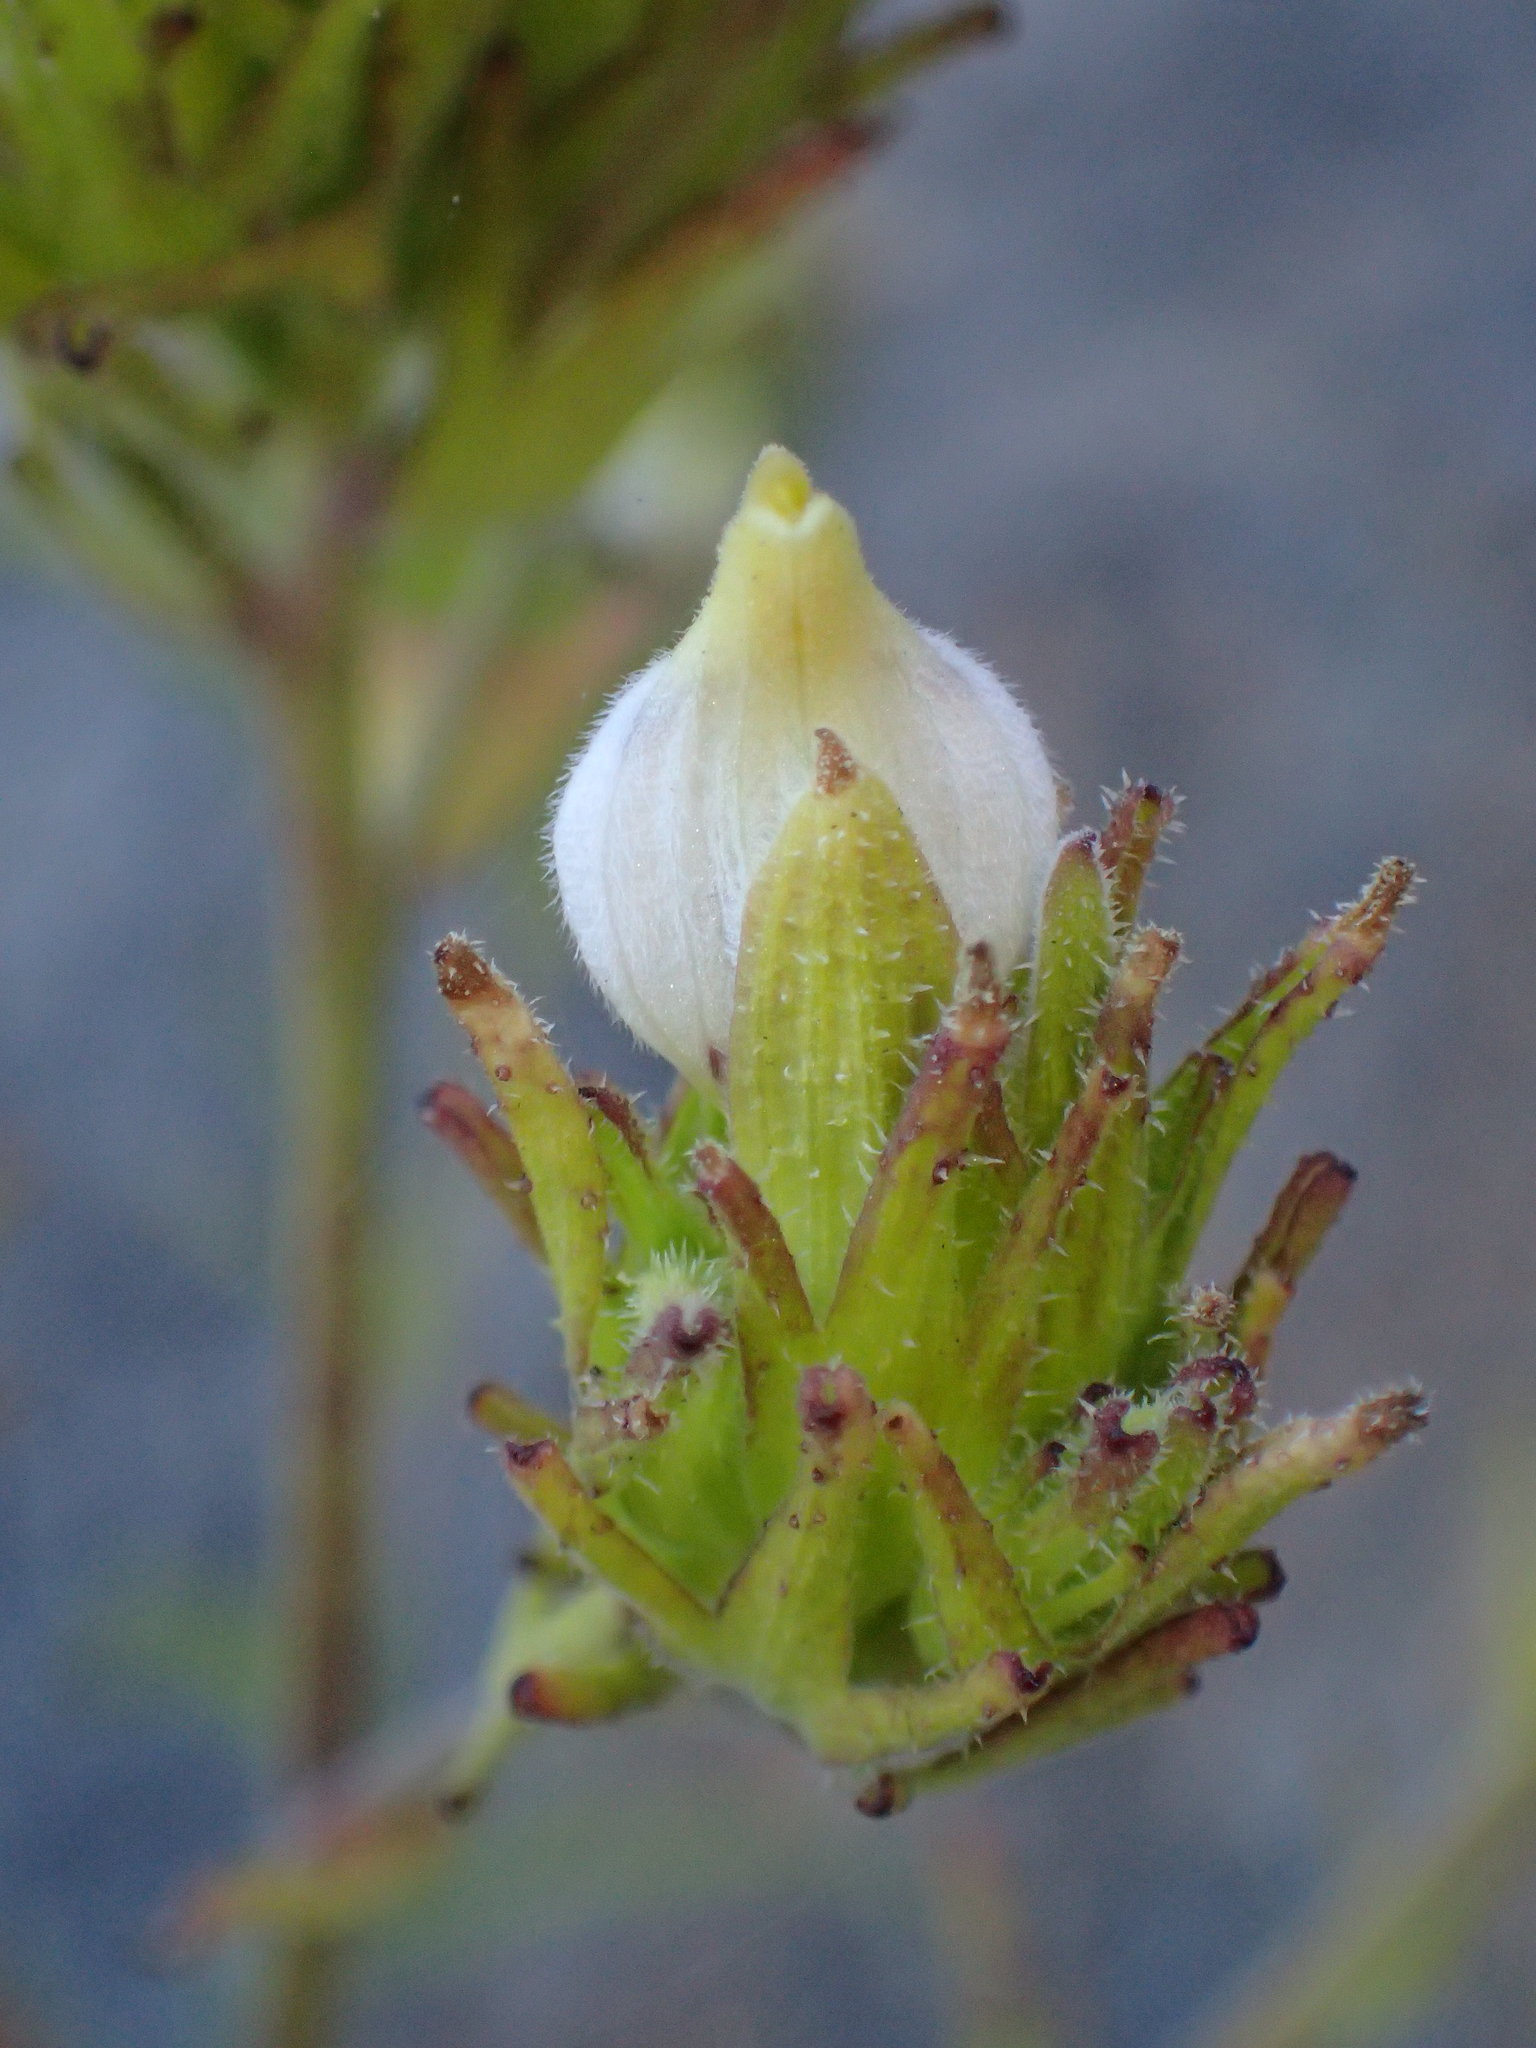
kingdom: Plantae
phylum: Tracheophyta
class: Magnoliopsida
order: Lamiales
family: Orobanchaceae
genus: Cordylanthus
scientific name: Cordylanthus rigidus
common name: Stiff-branch bird's-beak
